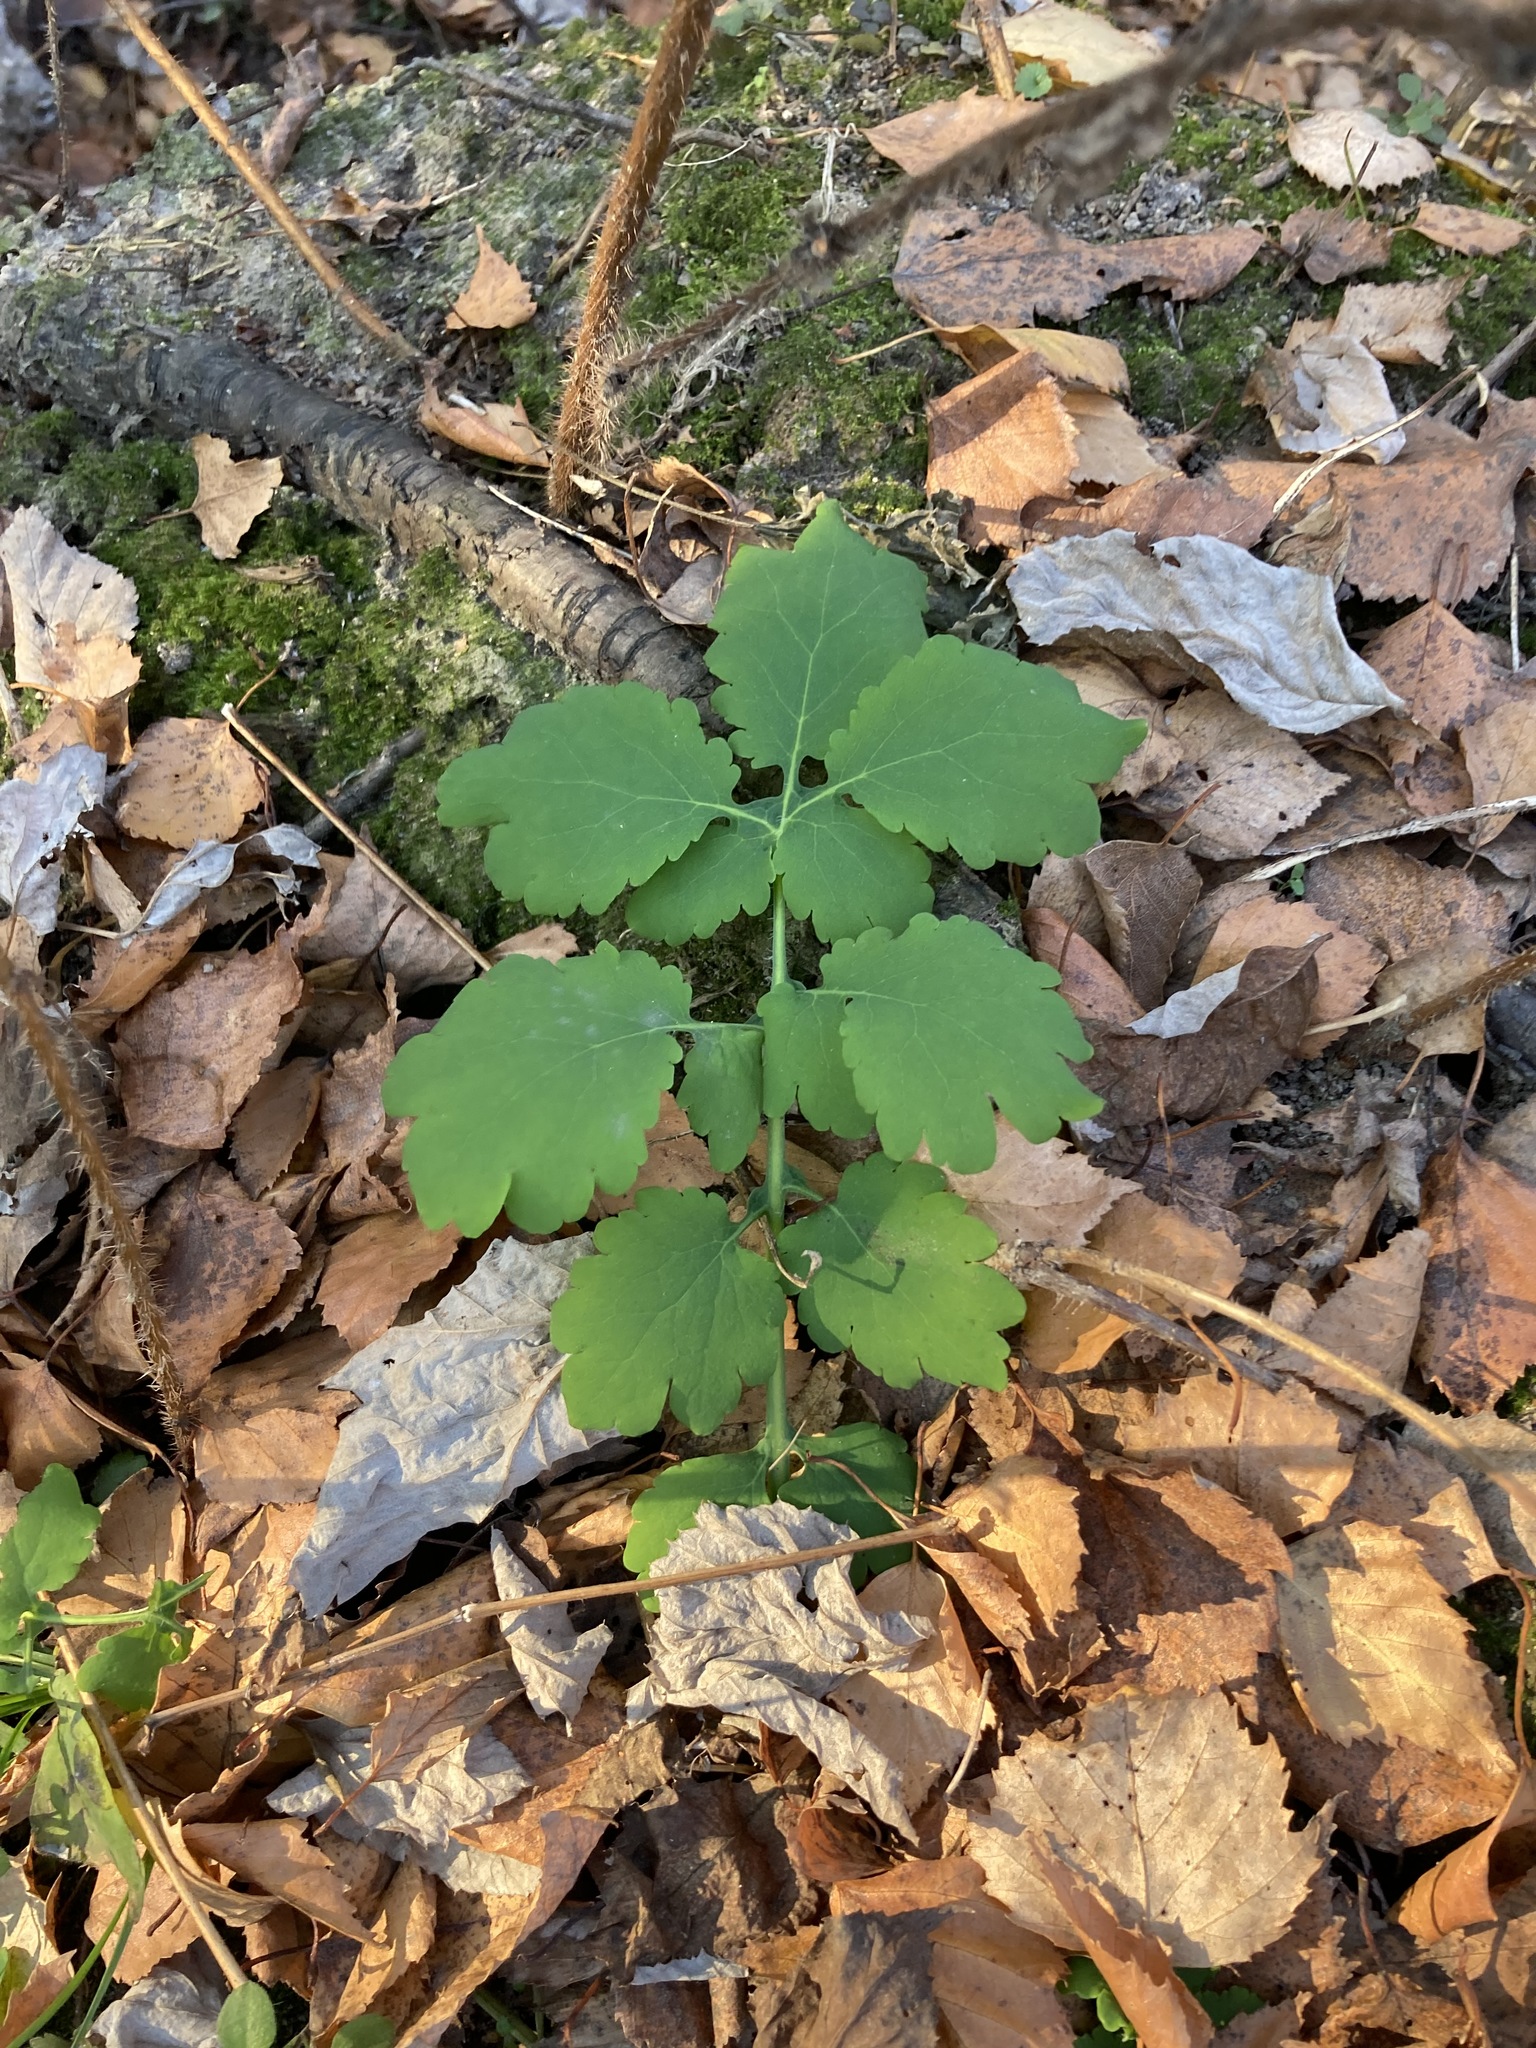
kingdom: Plantae
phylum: Tracheophyta
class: Magnoliopsida
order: Ranunculales
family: Papaveraceae
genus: Chelidonium
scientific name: Chelidonium majus
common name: Greater celandine
